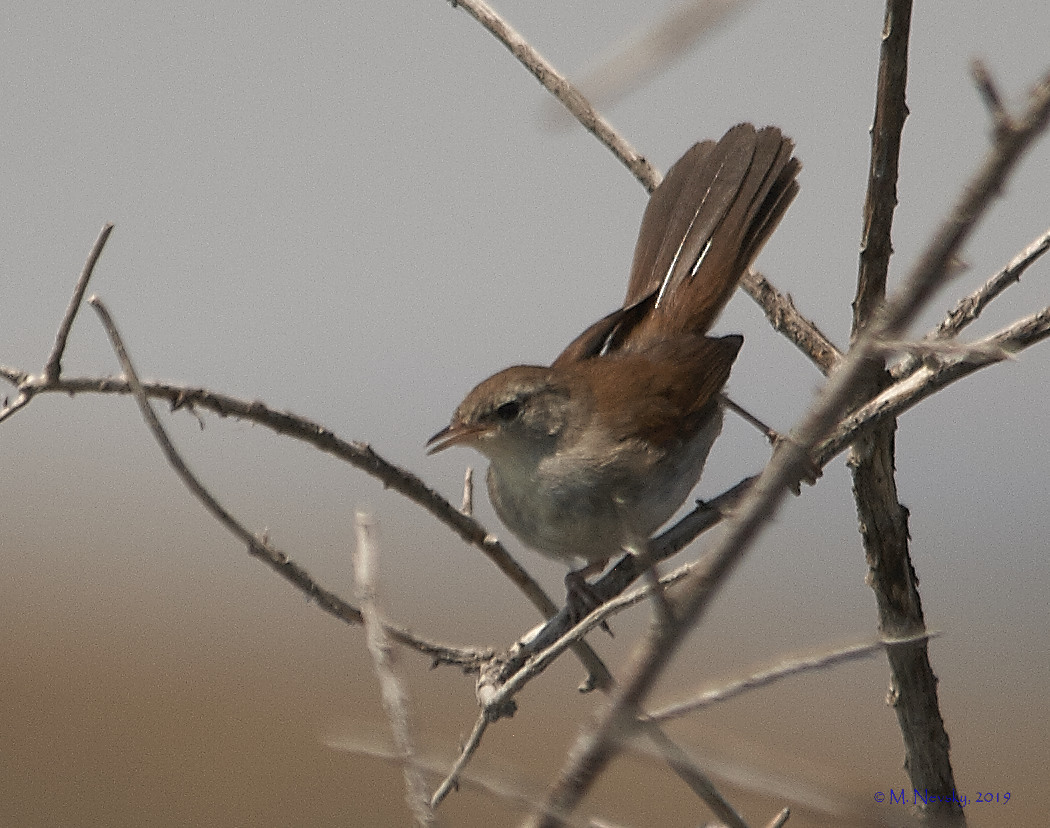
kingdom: Animalia
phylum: Chordata
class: Aves
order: Passeriformes
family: Cettiidae
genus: Cettia
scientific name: Cettia cetti
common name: Cetti's warbler
